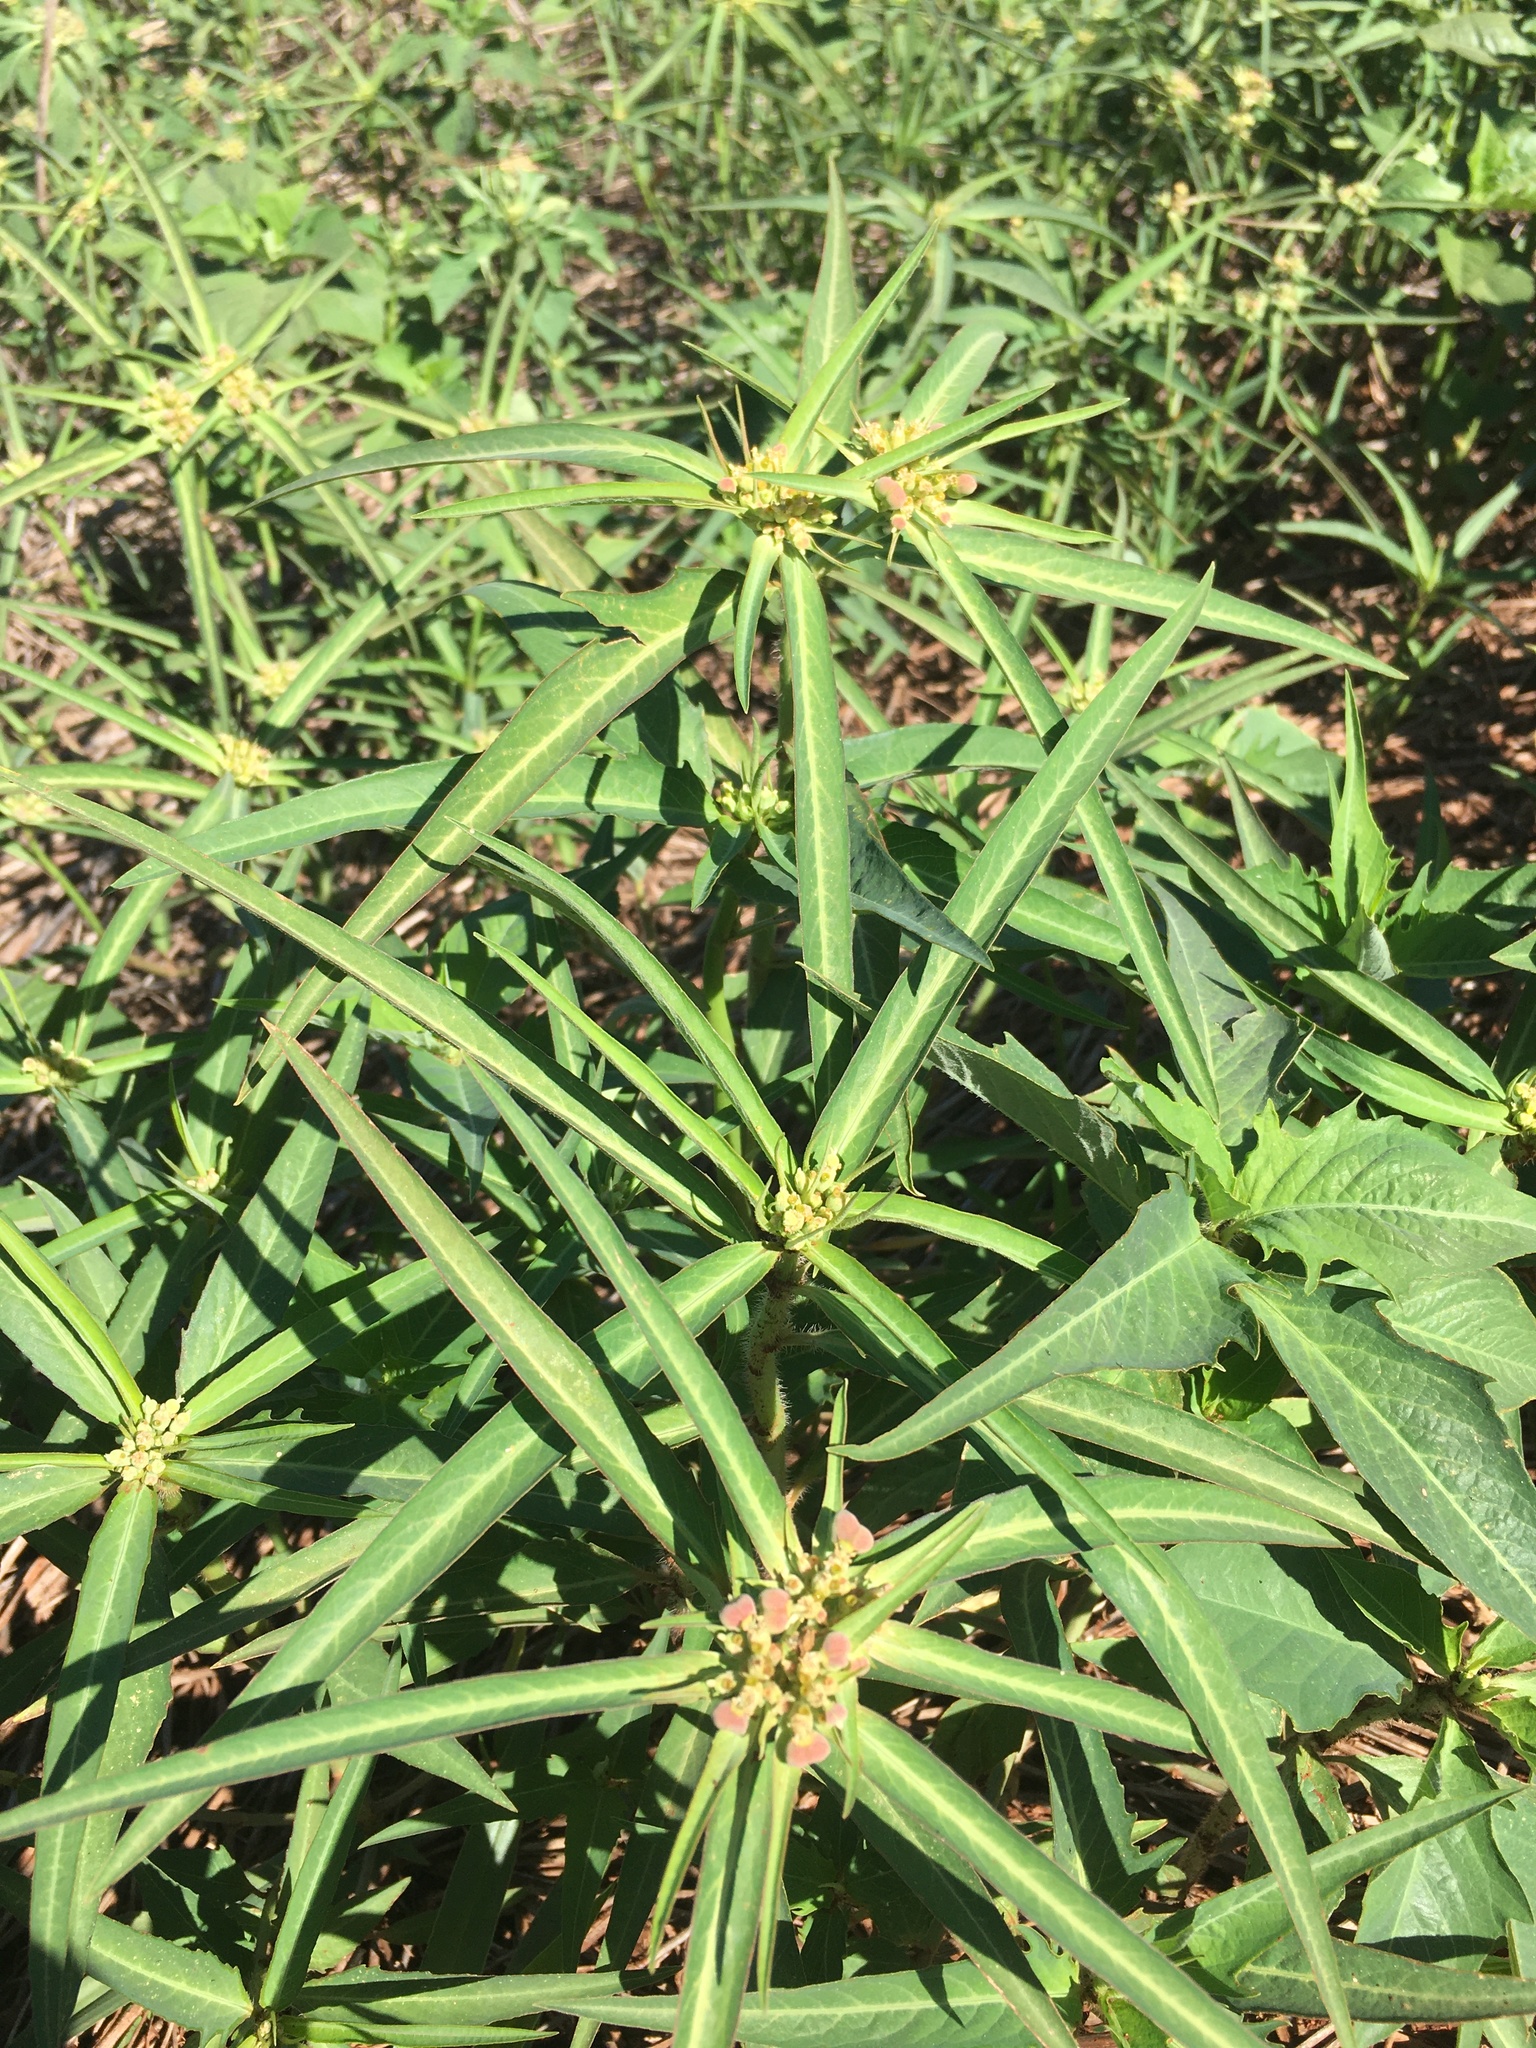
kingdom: Plantae
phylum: Tracheophyta
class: Magnoliopsida
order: Malpighiales
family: Euphorbiaceae
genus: Euphorbia
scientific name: Euphorbia heterophylla
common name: Mexican fireplant
